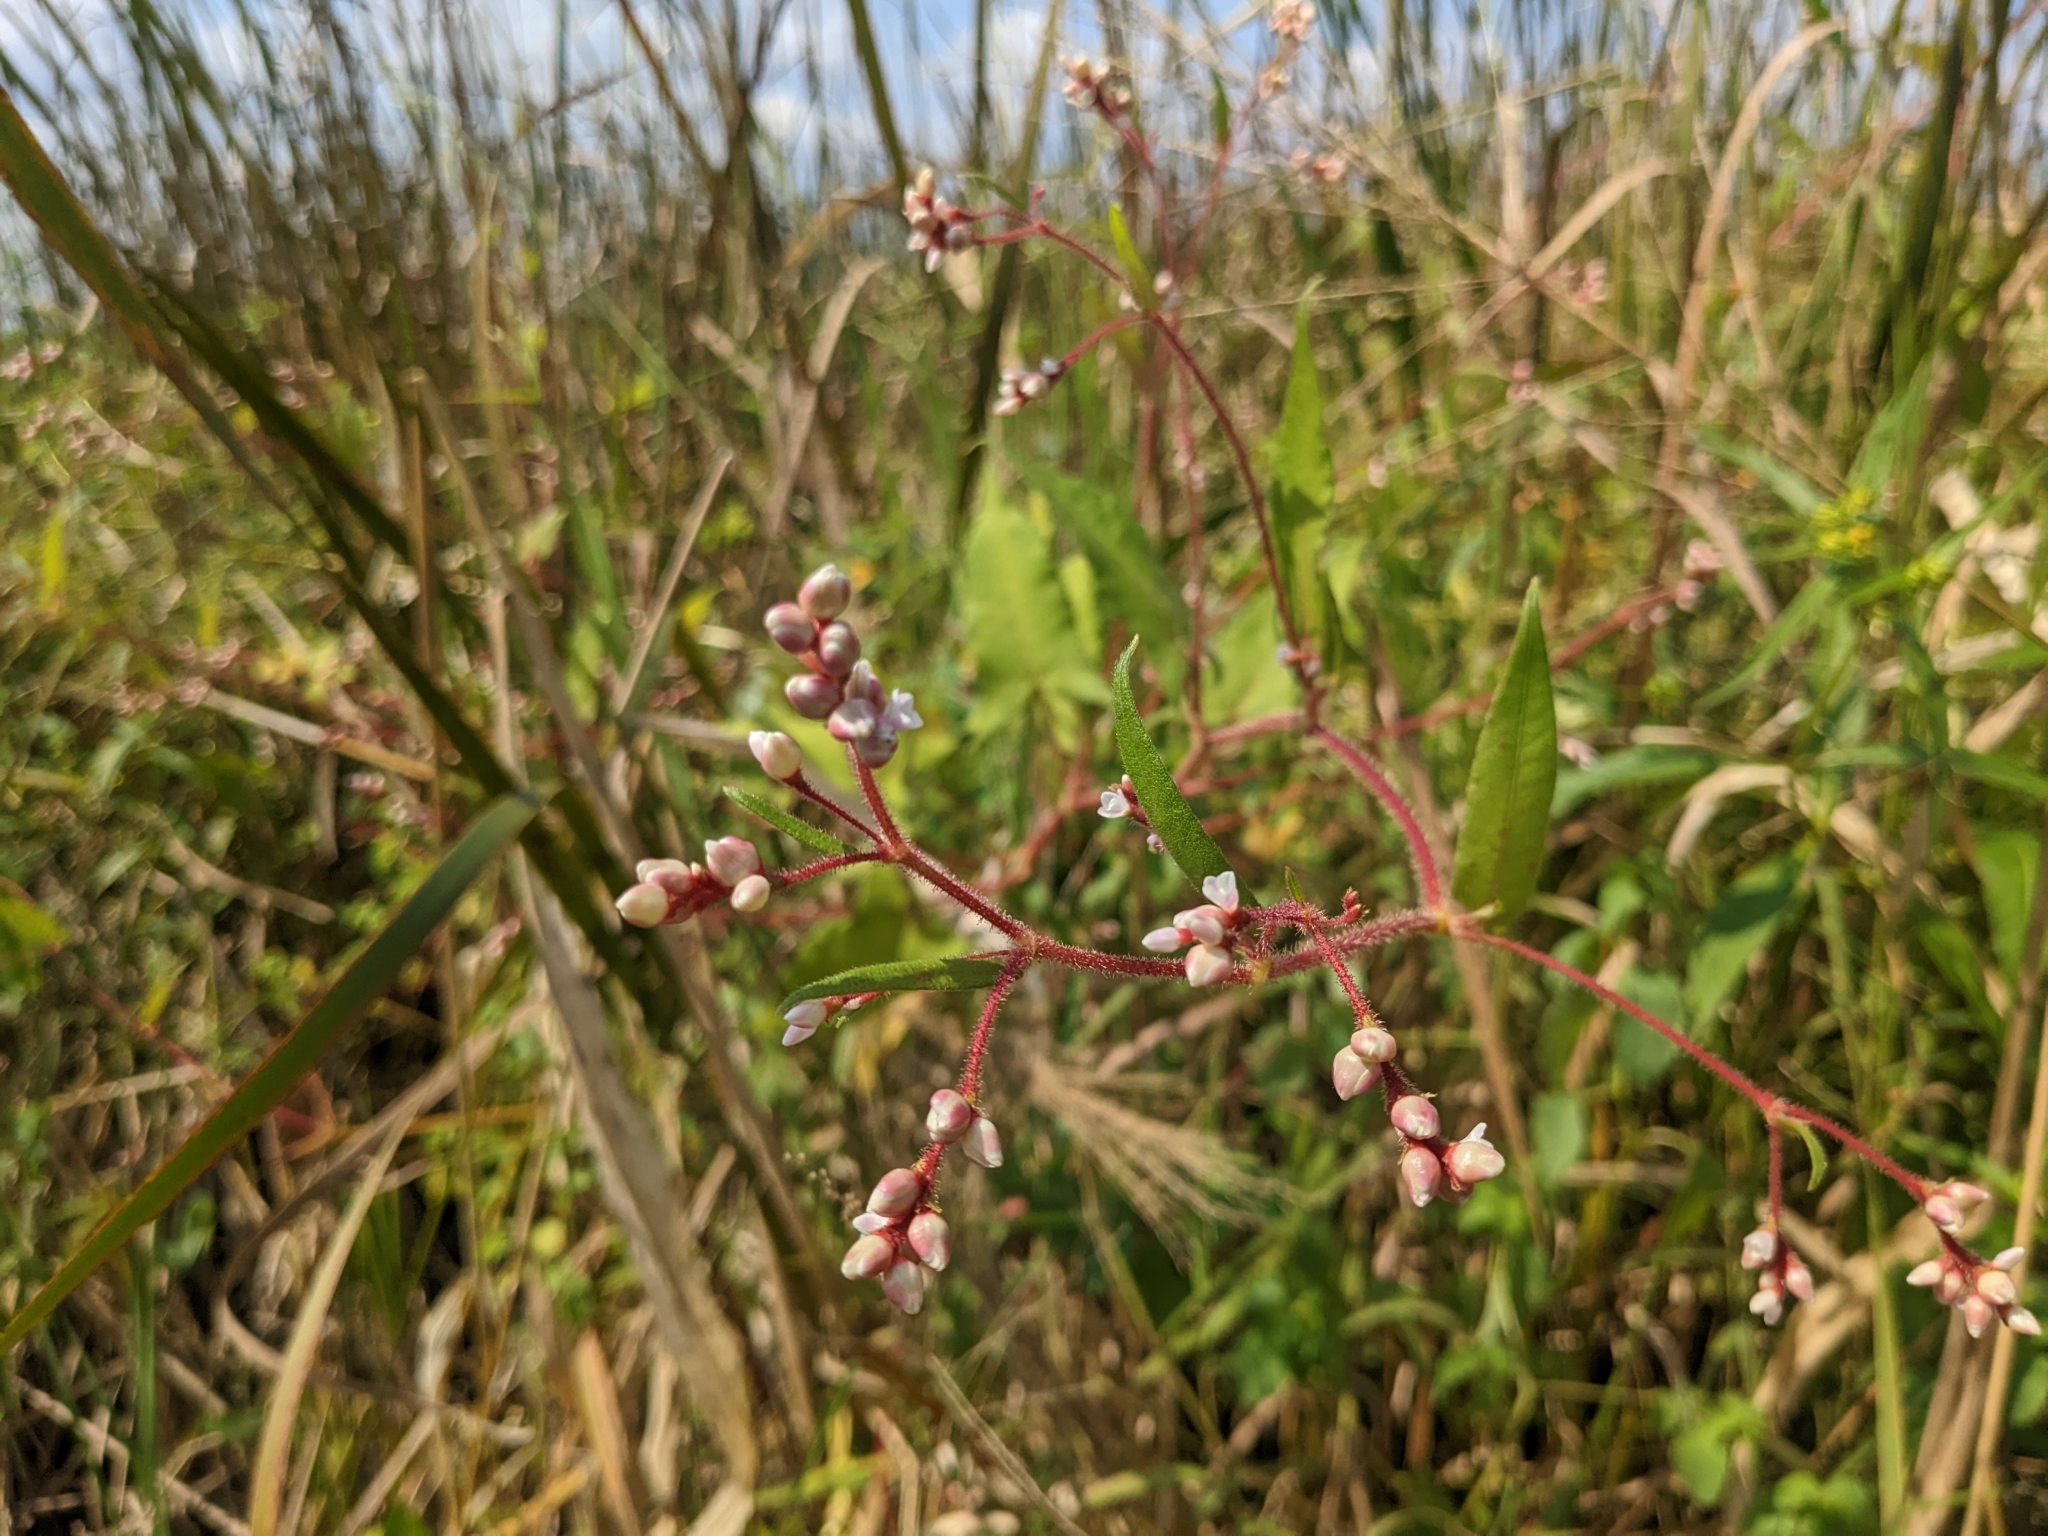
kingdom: Plantae
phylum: Tracheophyta
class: Magnoliopsida
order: Caryophyllales
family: Polygonaceae
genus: Persicaria
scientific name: Persicaria arifolia
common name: Halberd-leaved tear-thumb
